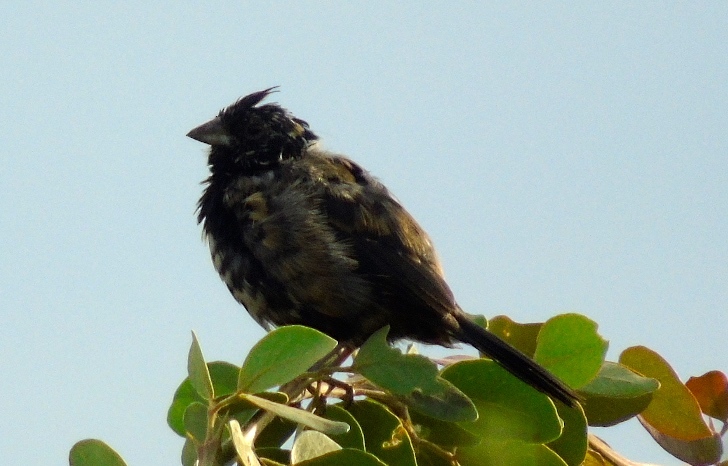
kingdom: Animalia
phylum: Chordata
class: Aves
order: Passeriformes
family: Thraupidae
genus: Volatinia
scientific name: Volatinia jacarina
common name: Blue-black grassquit
